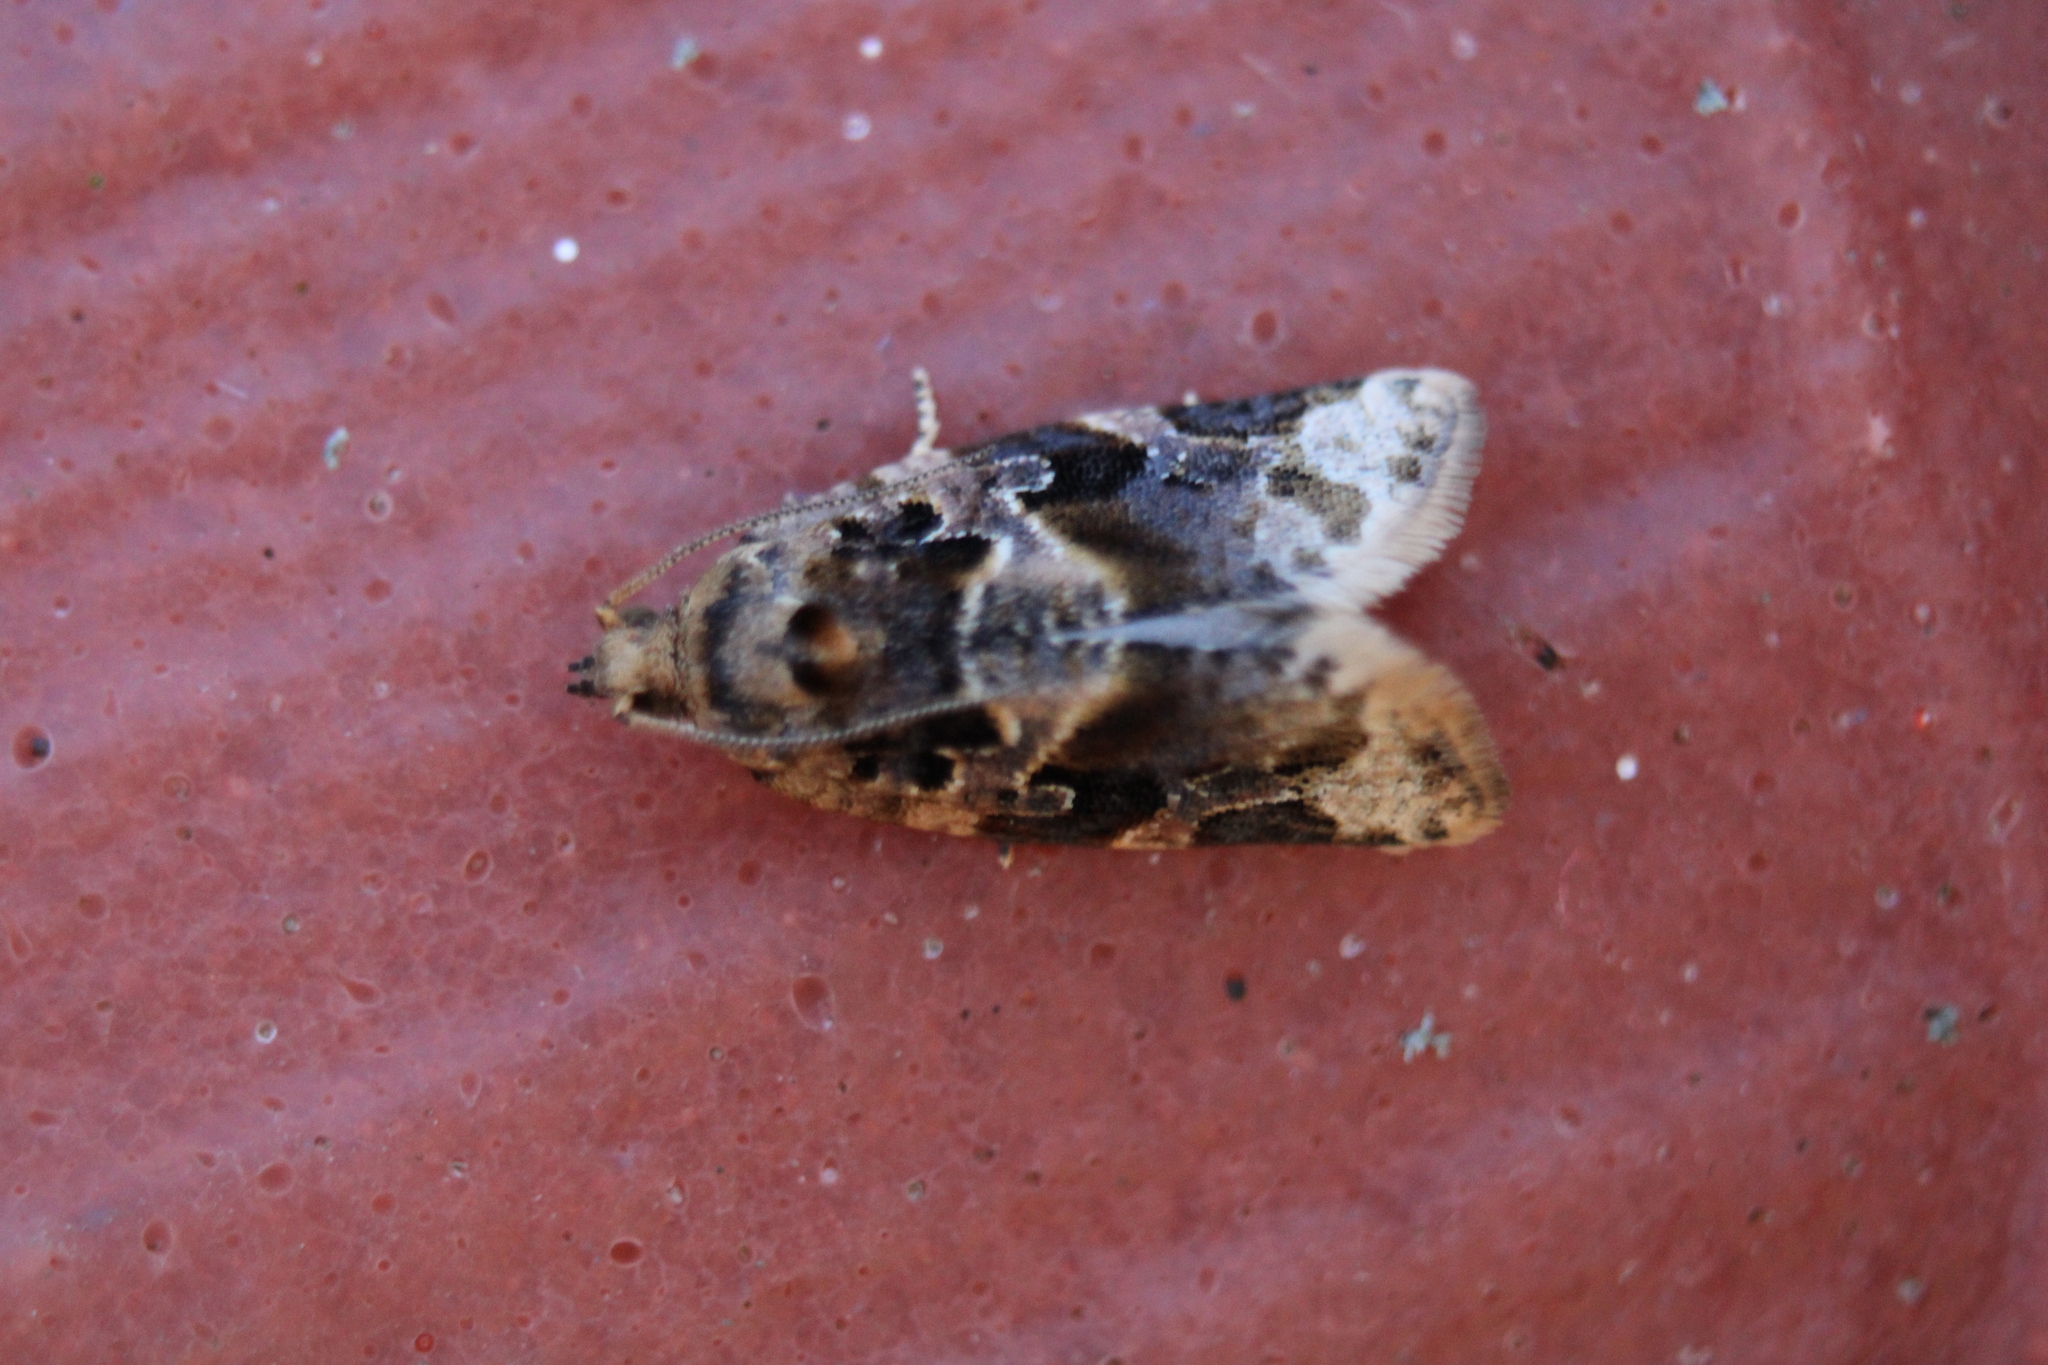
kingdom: Animalia
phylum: Arthropoda
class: Insecta
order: Lepidoptera
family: Tortricidae
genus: Argyrotaenia
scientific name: Argyrotaenia velutinana
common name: Red-banded leafroller moth
